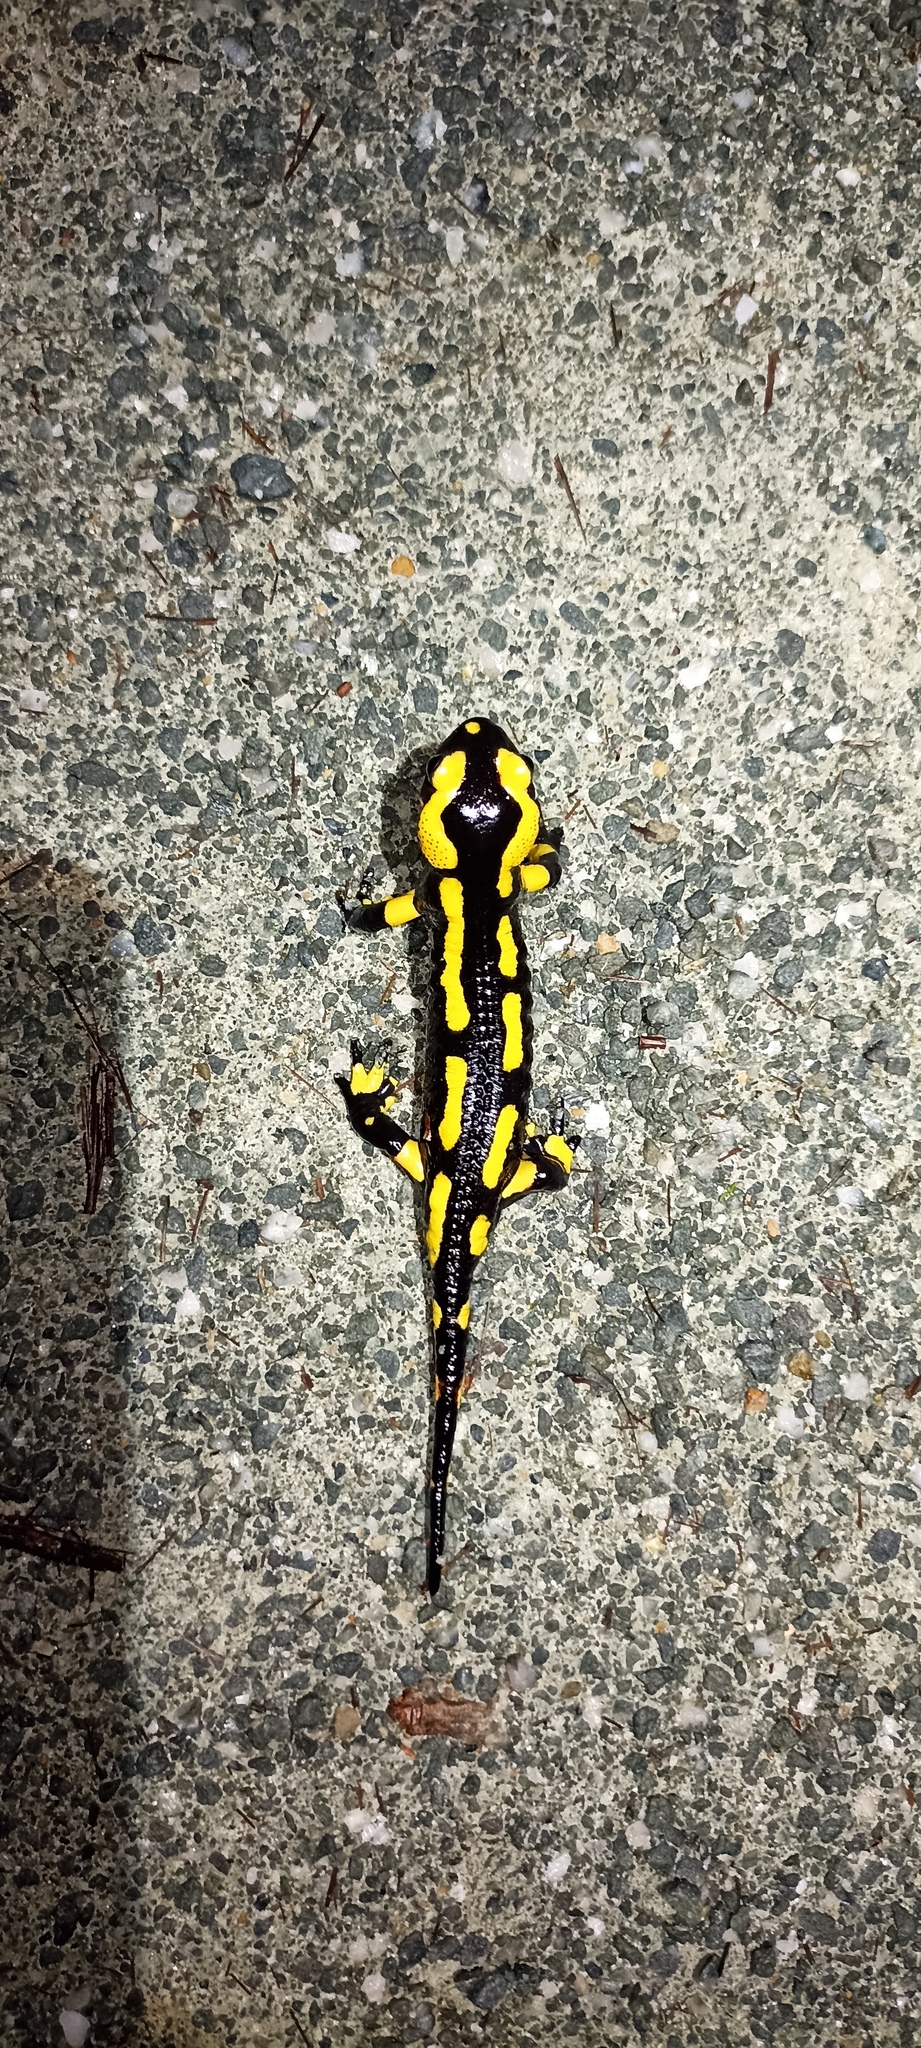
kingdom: Animalia
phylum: Chordata
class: Amphibia
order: Caudata
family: Salamandridae
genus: Salamandra
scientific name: Salamandra salamandra
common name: Fire salamander
